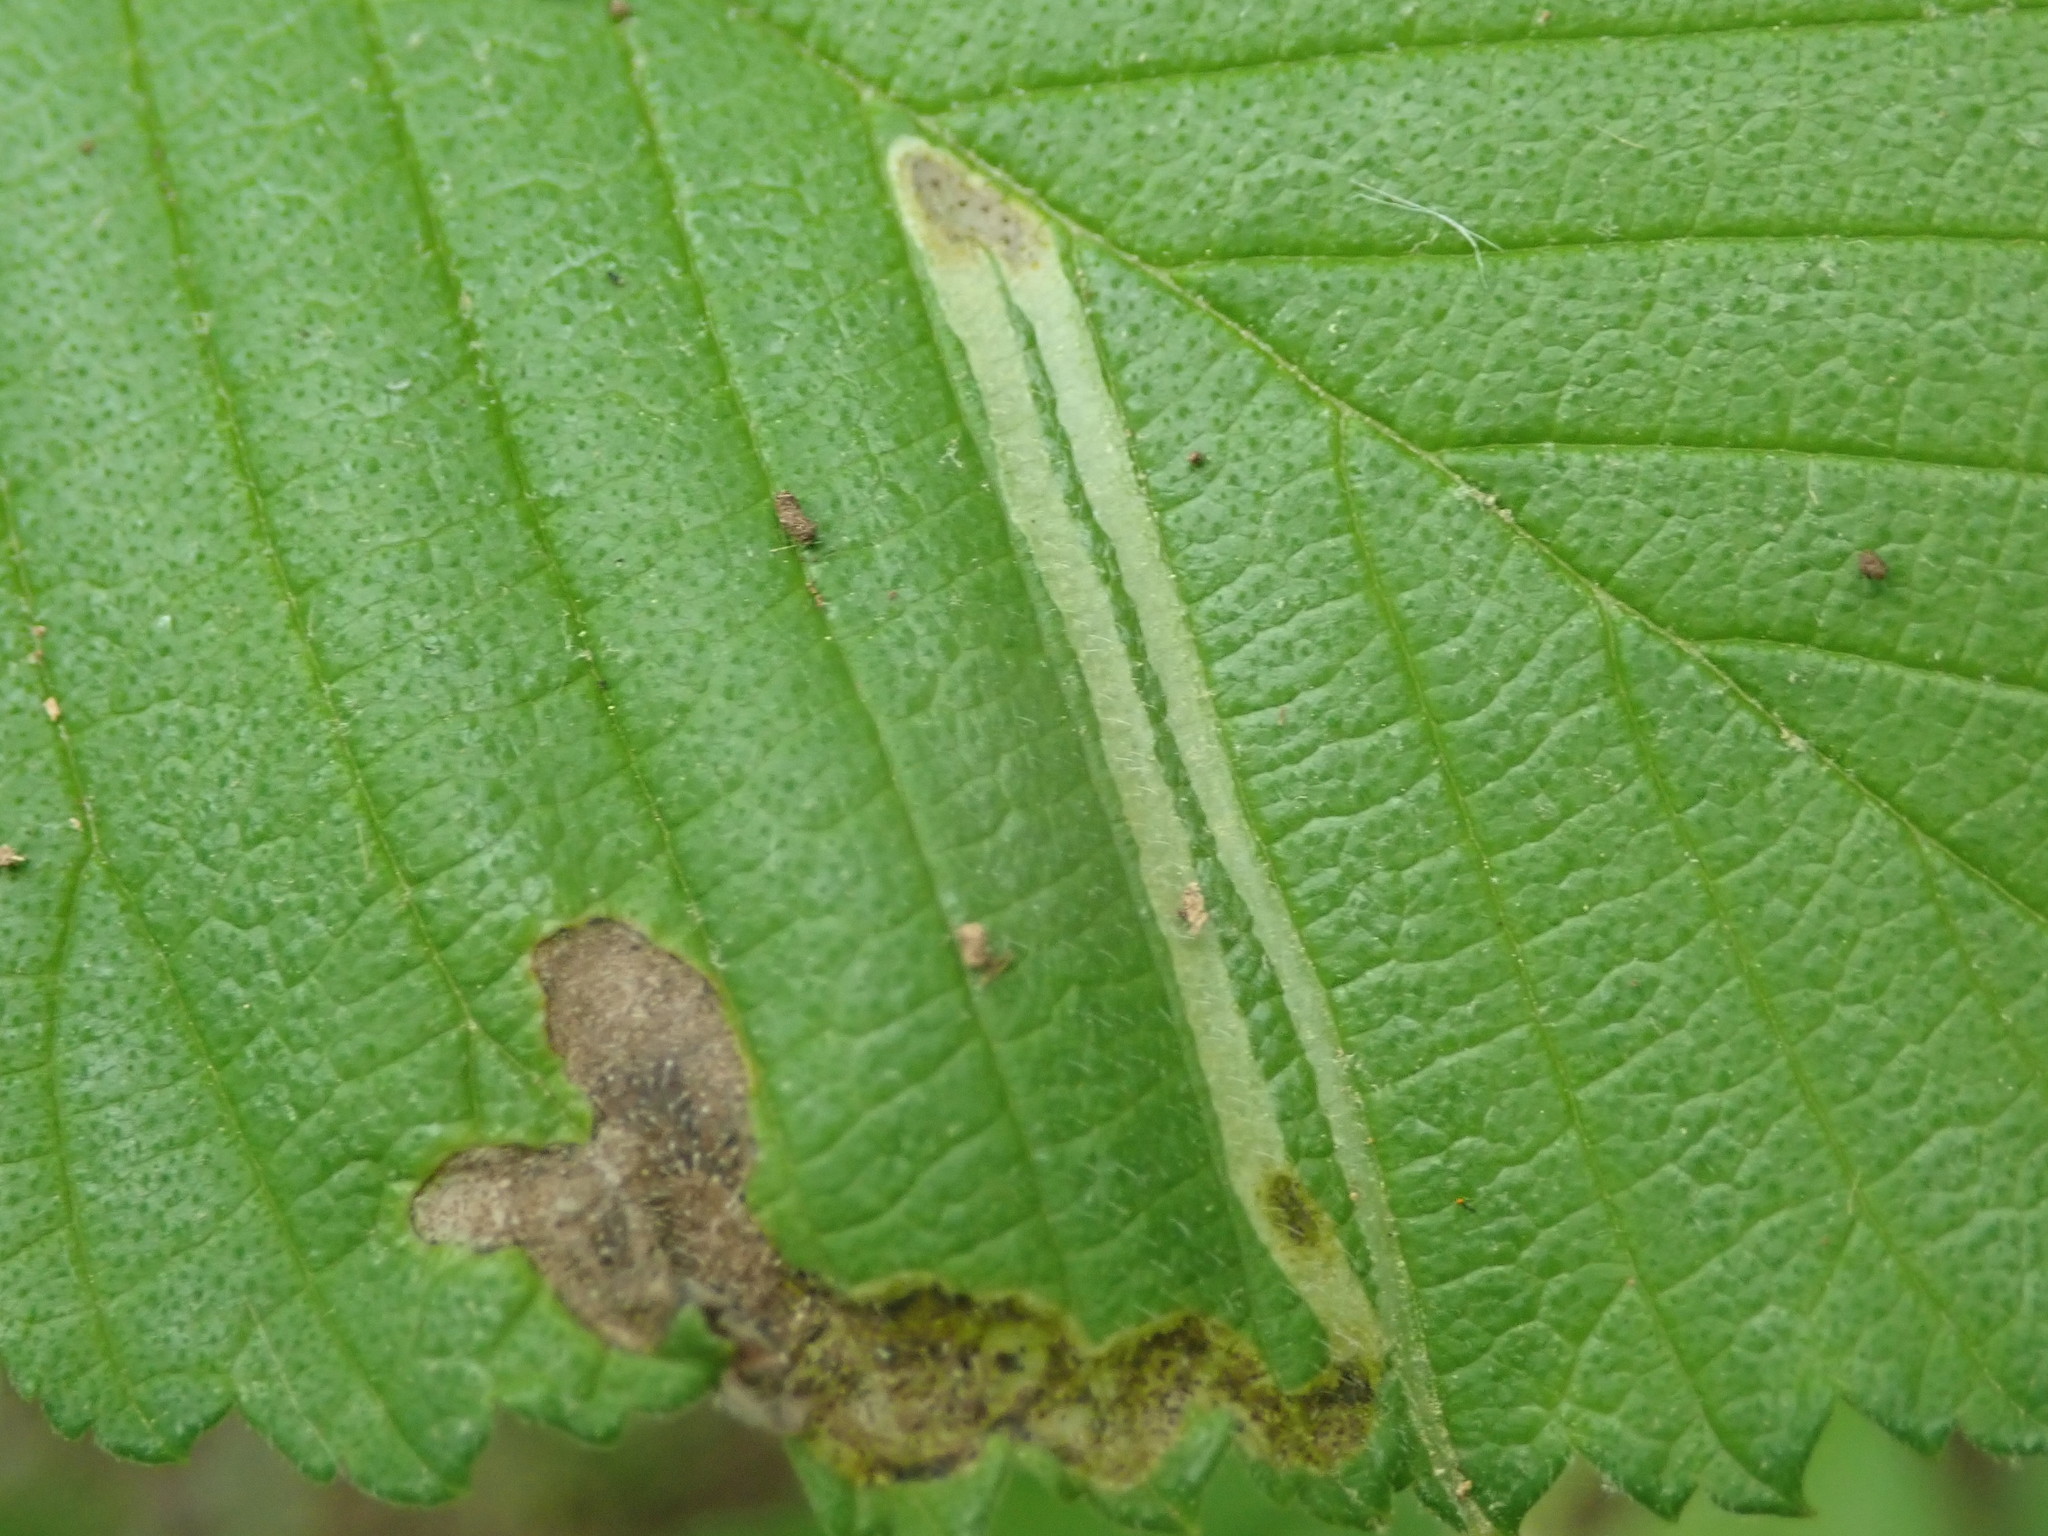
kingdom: Animalia
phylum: Arthropoda
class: Insecta
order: Diptera
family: Agromyzidae
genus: Agromyza
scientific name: Agromyza aristata
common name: Elm agromyzid leafminer
